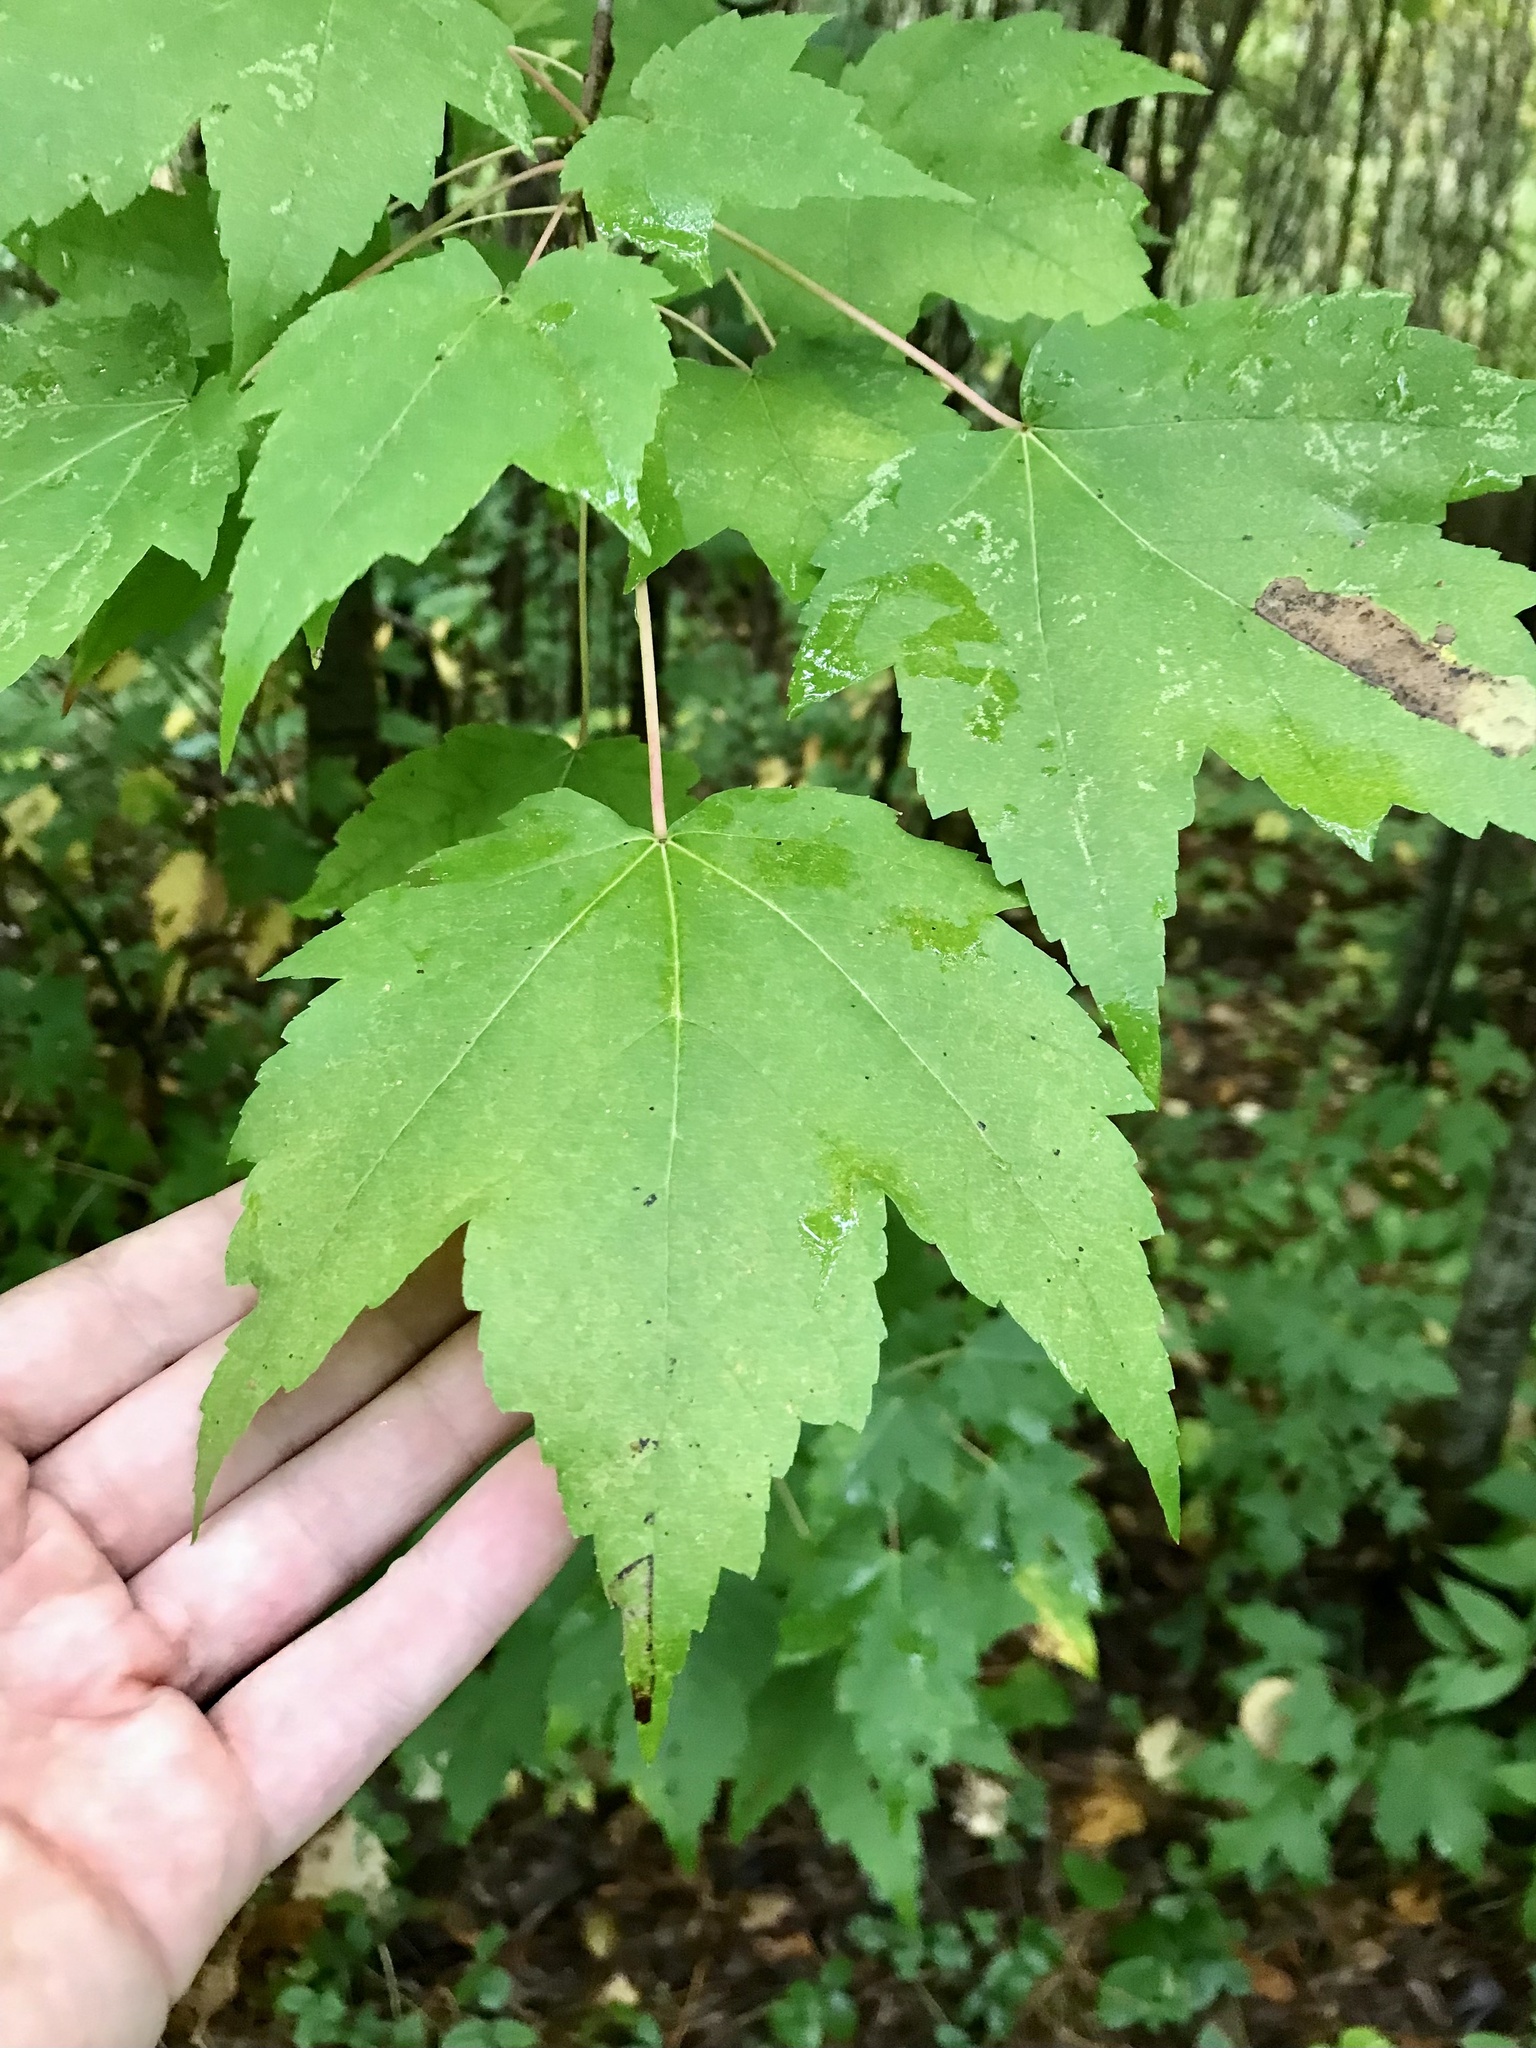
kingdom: Plantae
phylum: Tracheophyta
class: Magnoliopsida
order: Sapindales
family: Sapindaceae
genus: Acer
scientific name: Acer rubrum
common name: Red maple
